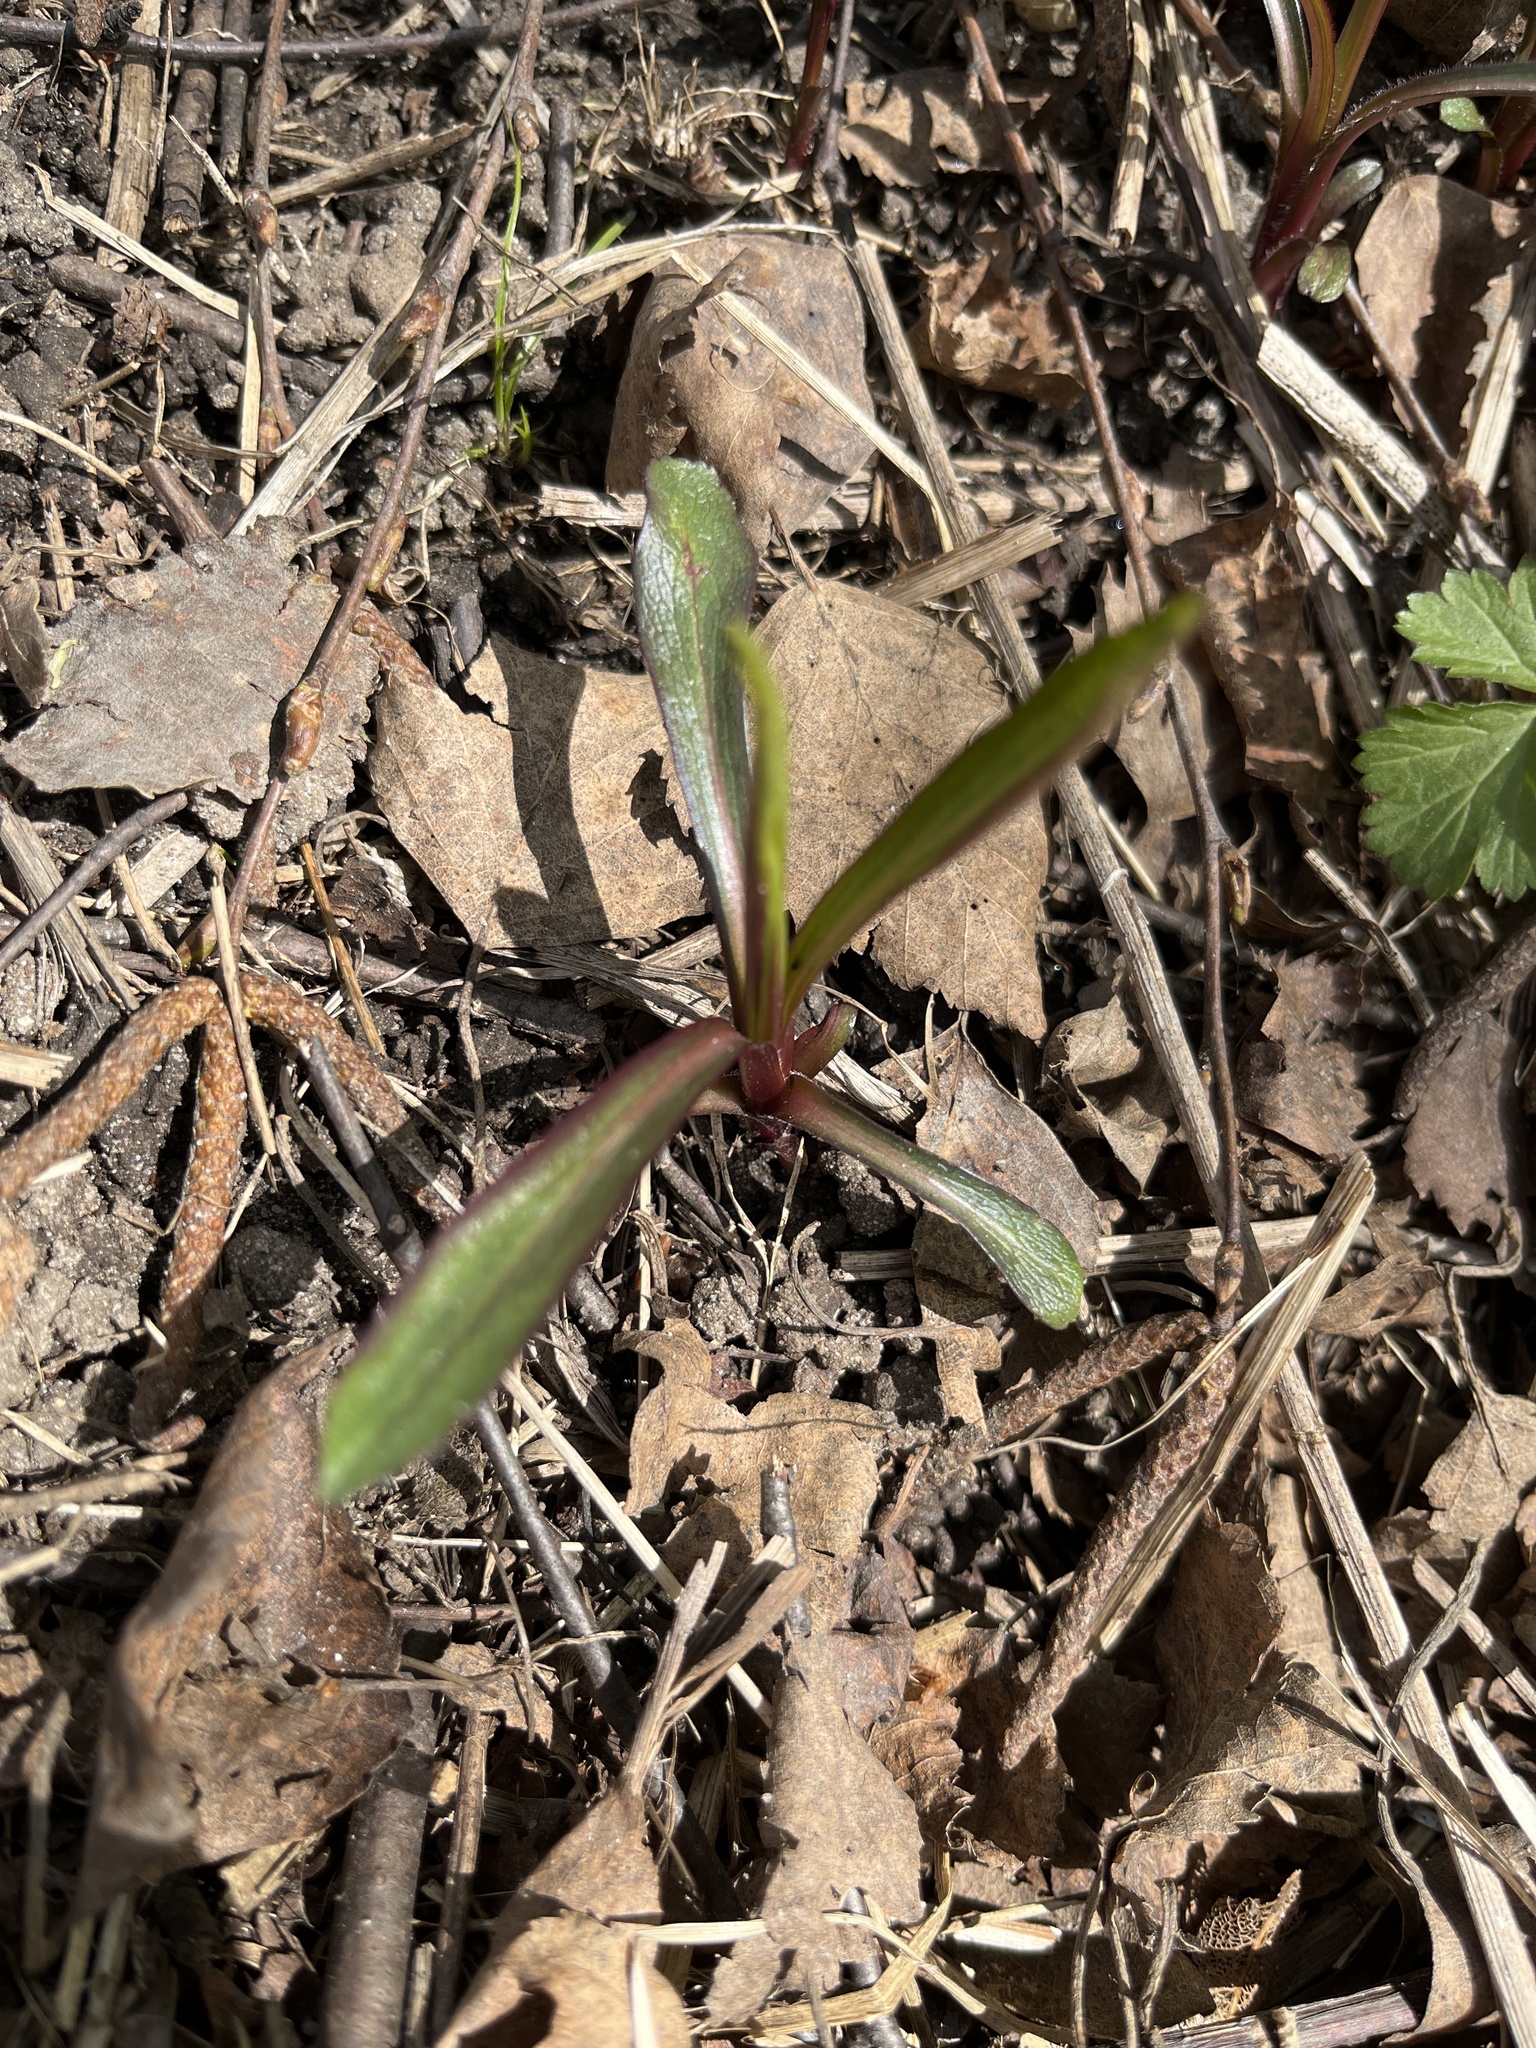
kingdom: Plantae
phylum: Tracheophyta
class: Magnoliopsida
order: Asterales
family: Asteraceae
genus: Solidago
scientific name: Solidago gigantea
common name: Giant goldenrod
